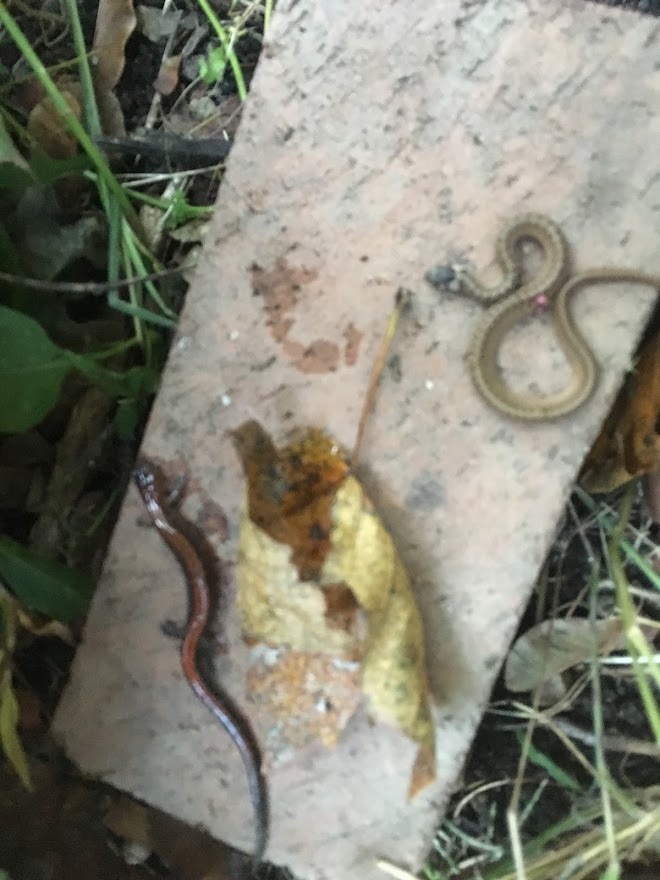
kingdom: Animalia
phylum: Chordata
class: Squamata
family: Colubridae
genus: Storeria
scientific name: Storeria dekayi
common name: (dekay’s) brown snake
